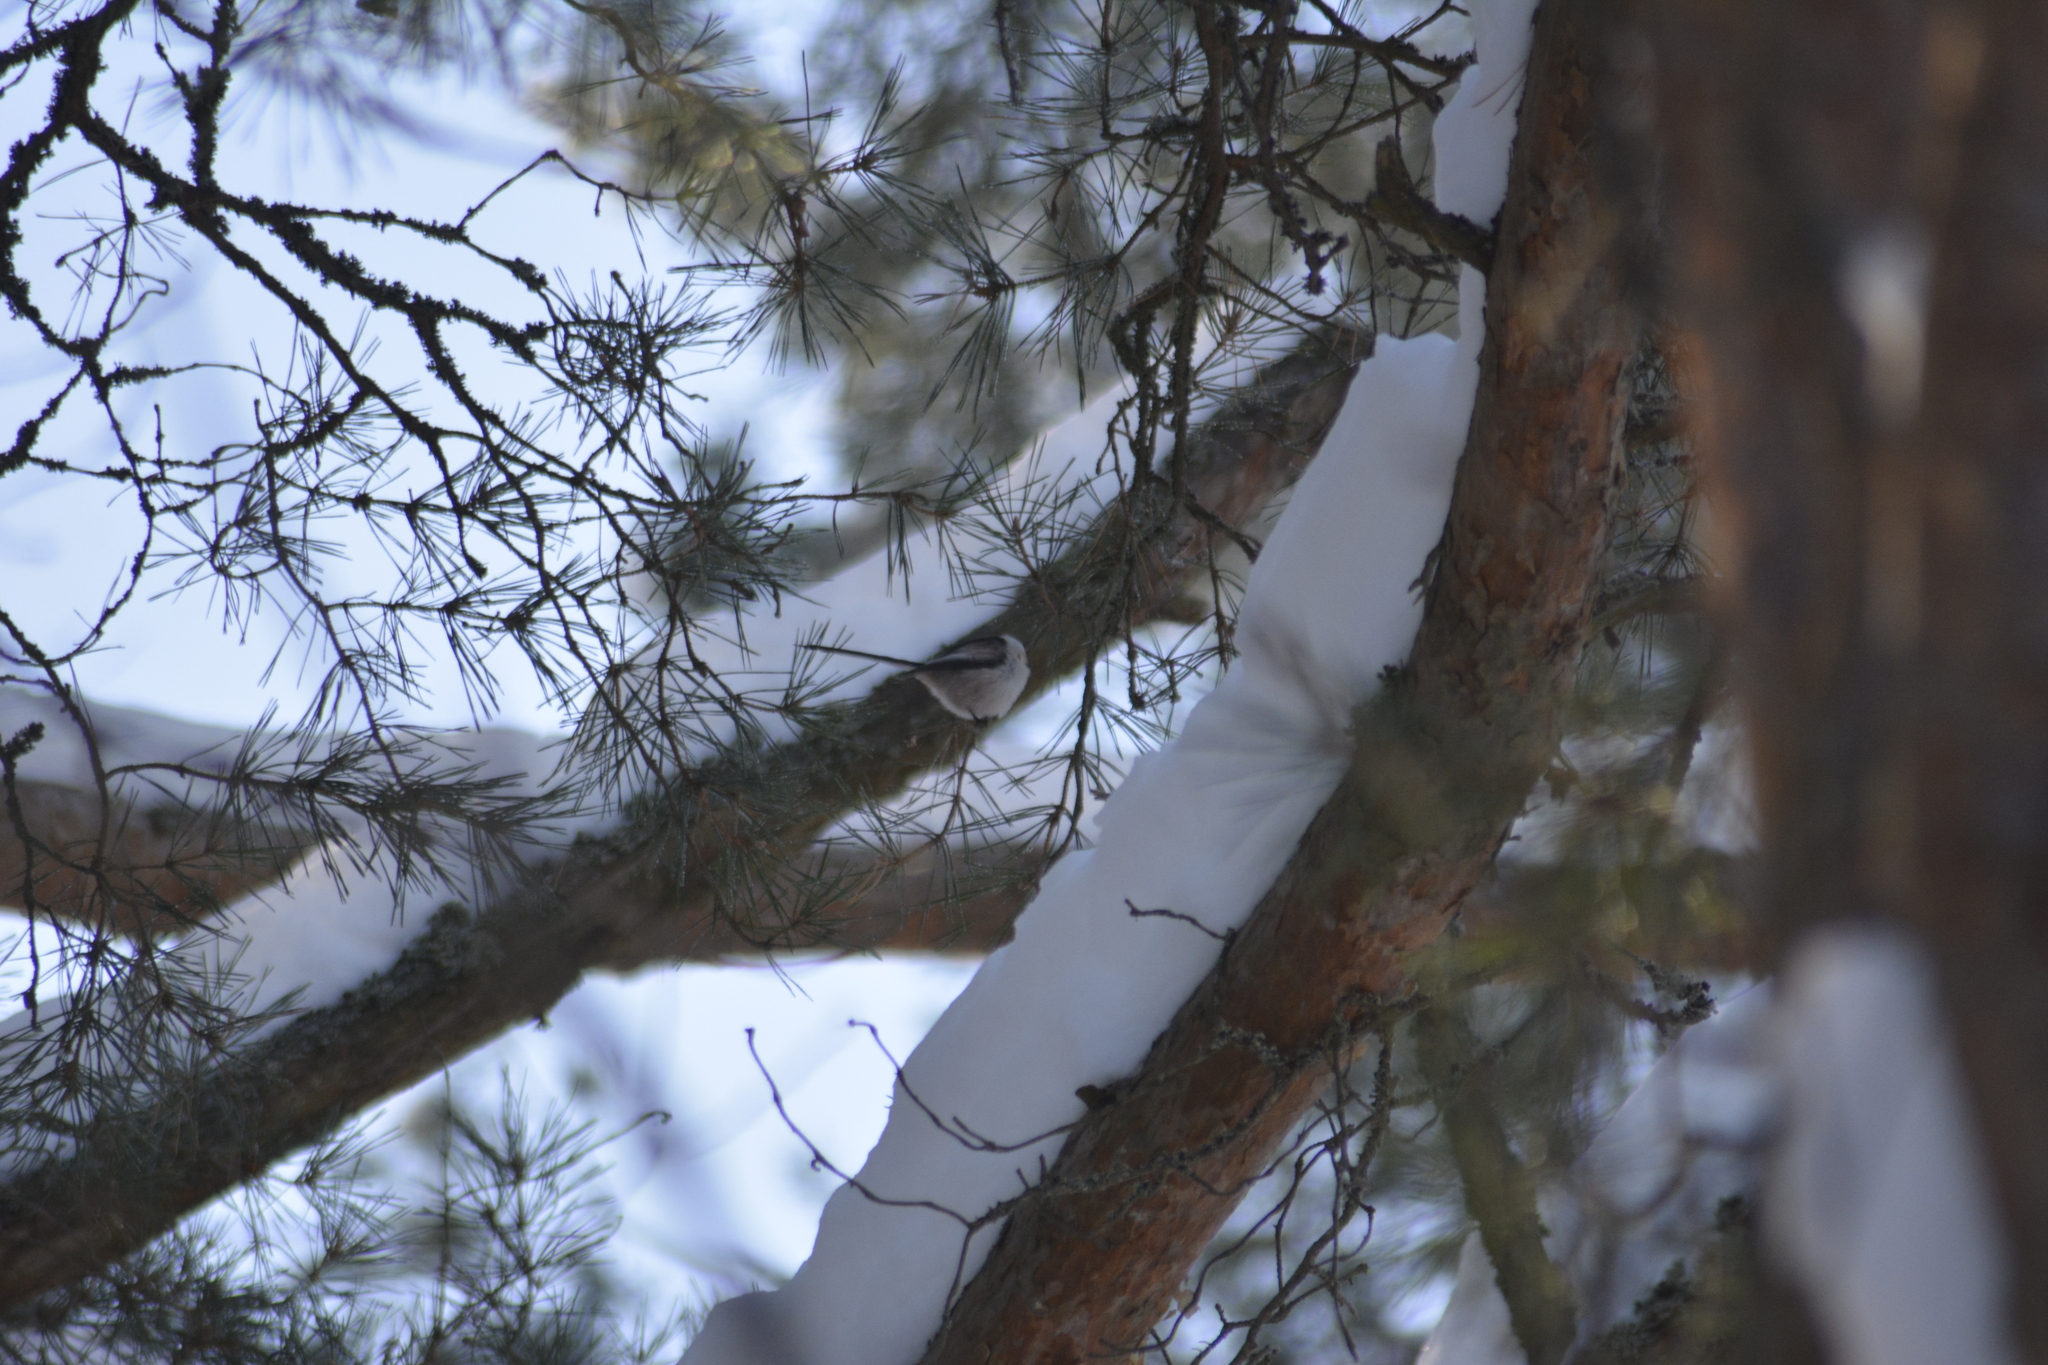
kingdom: Animalia
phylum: Chordata
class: Aves
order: Passeriformes
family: Aegithalidae
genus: Aegithalos
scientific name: Aegithalos caudatus
